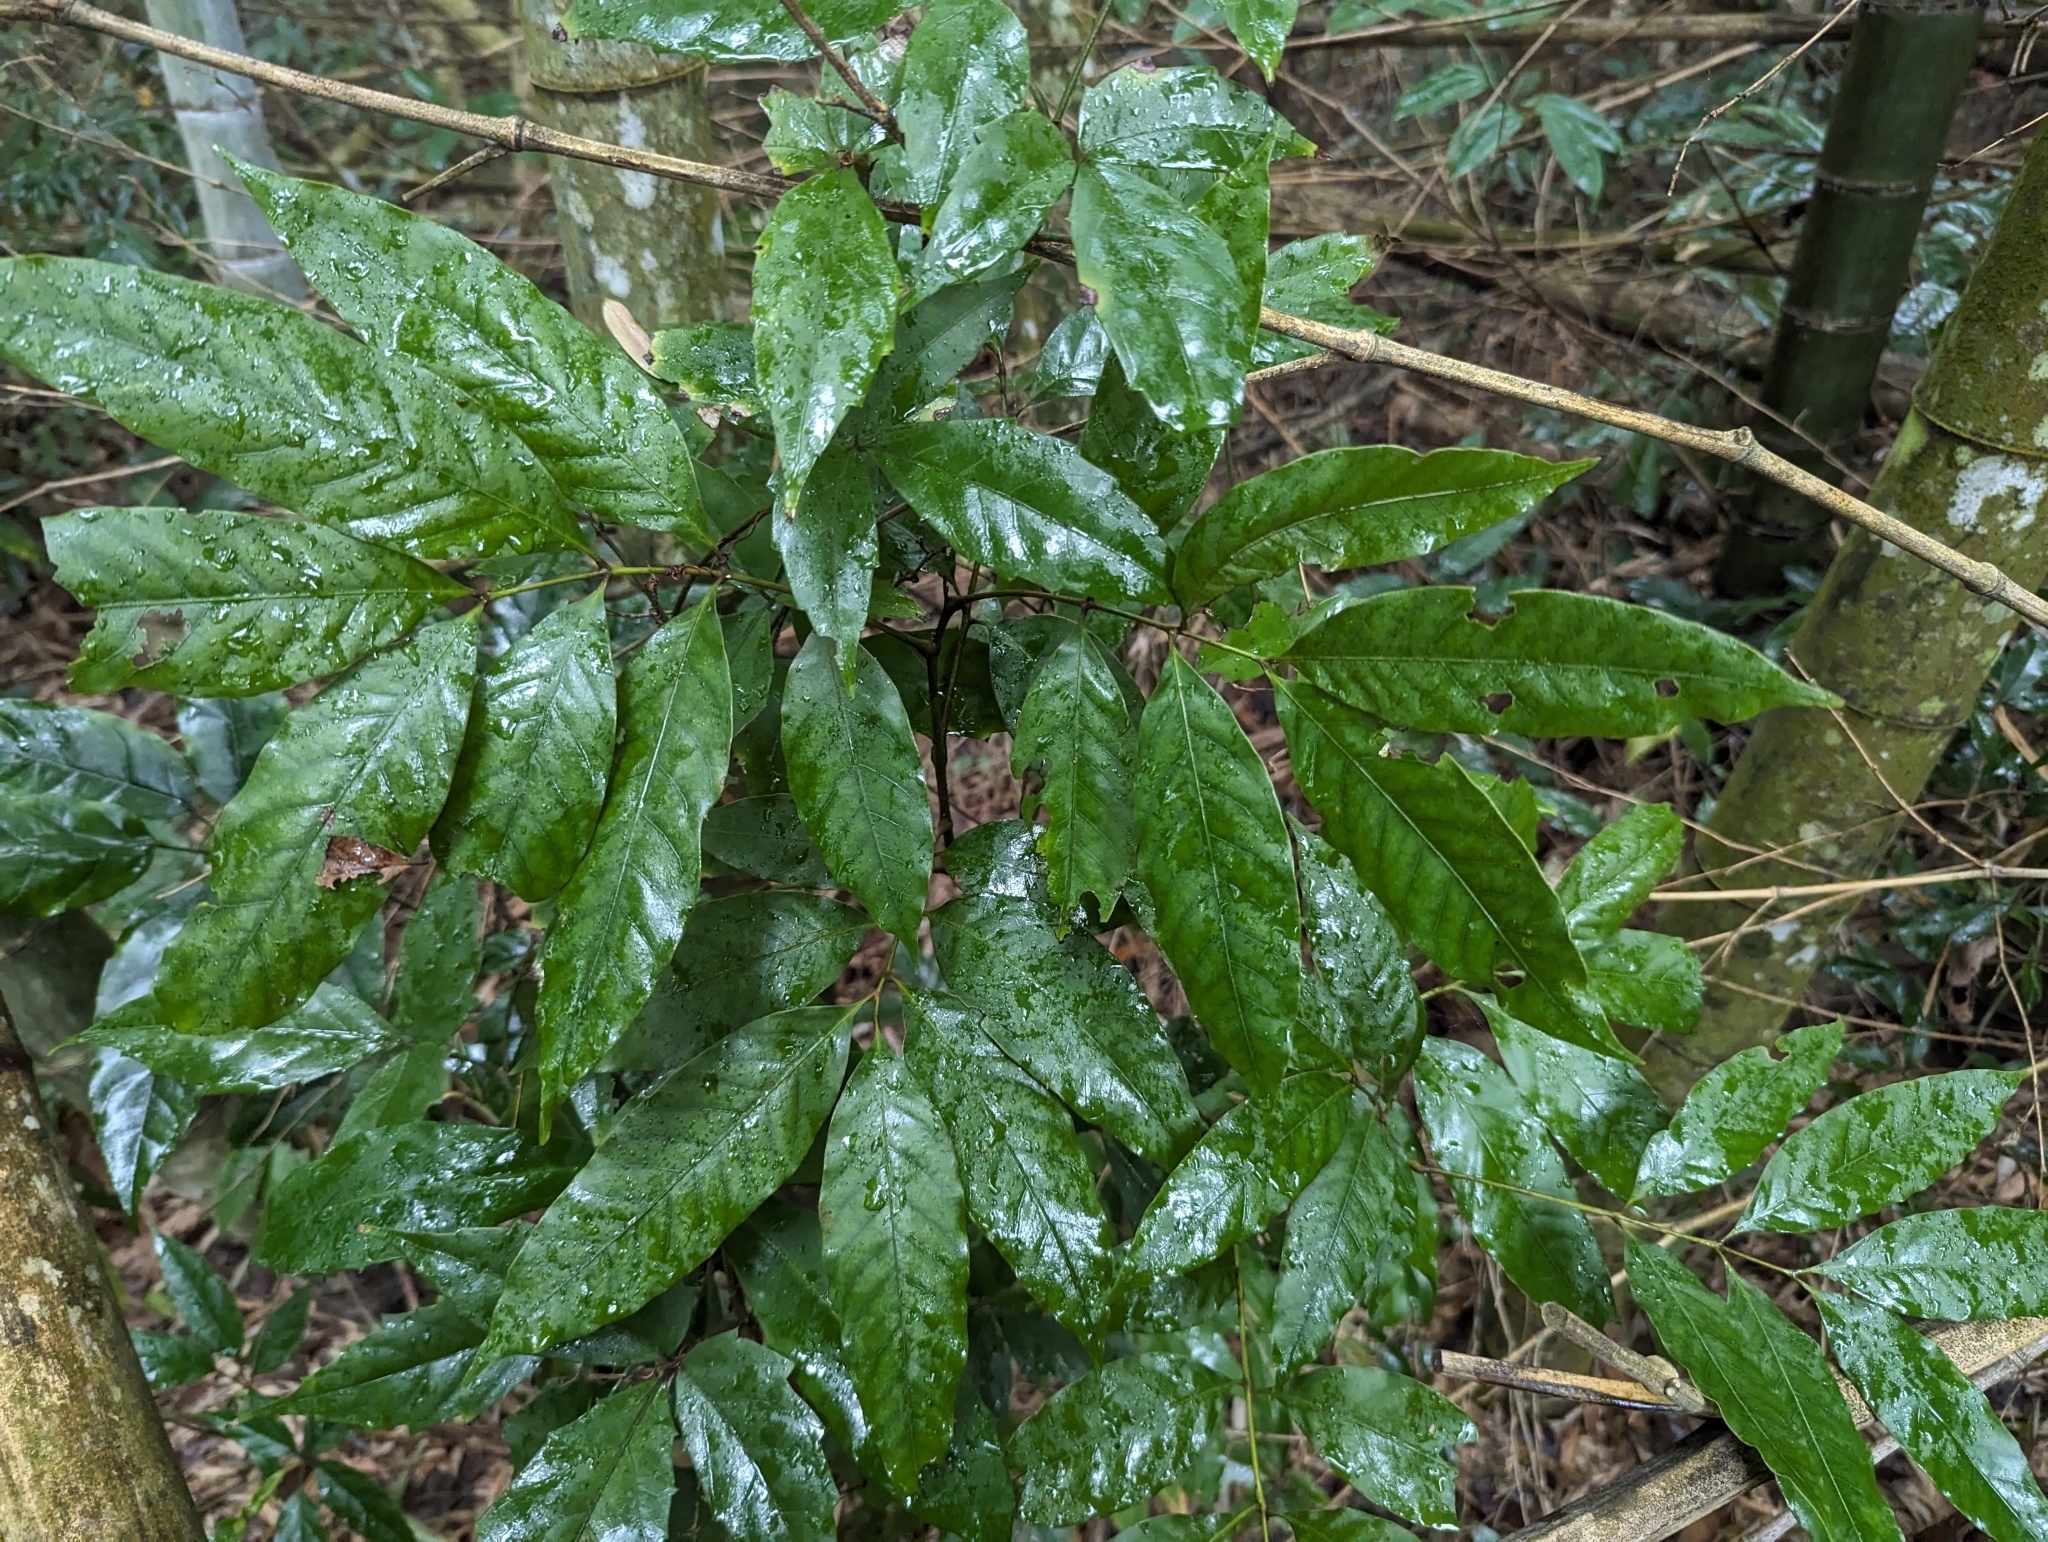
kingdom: Plantae
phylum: Tracheophyta
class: Magnoliopsida
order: Fagales
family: Juglandaceae
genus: Engelhardia
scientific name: Engelhardia roxburghiana
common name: Golden malay beam
